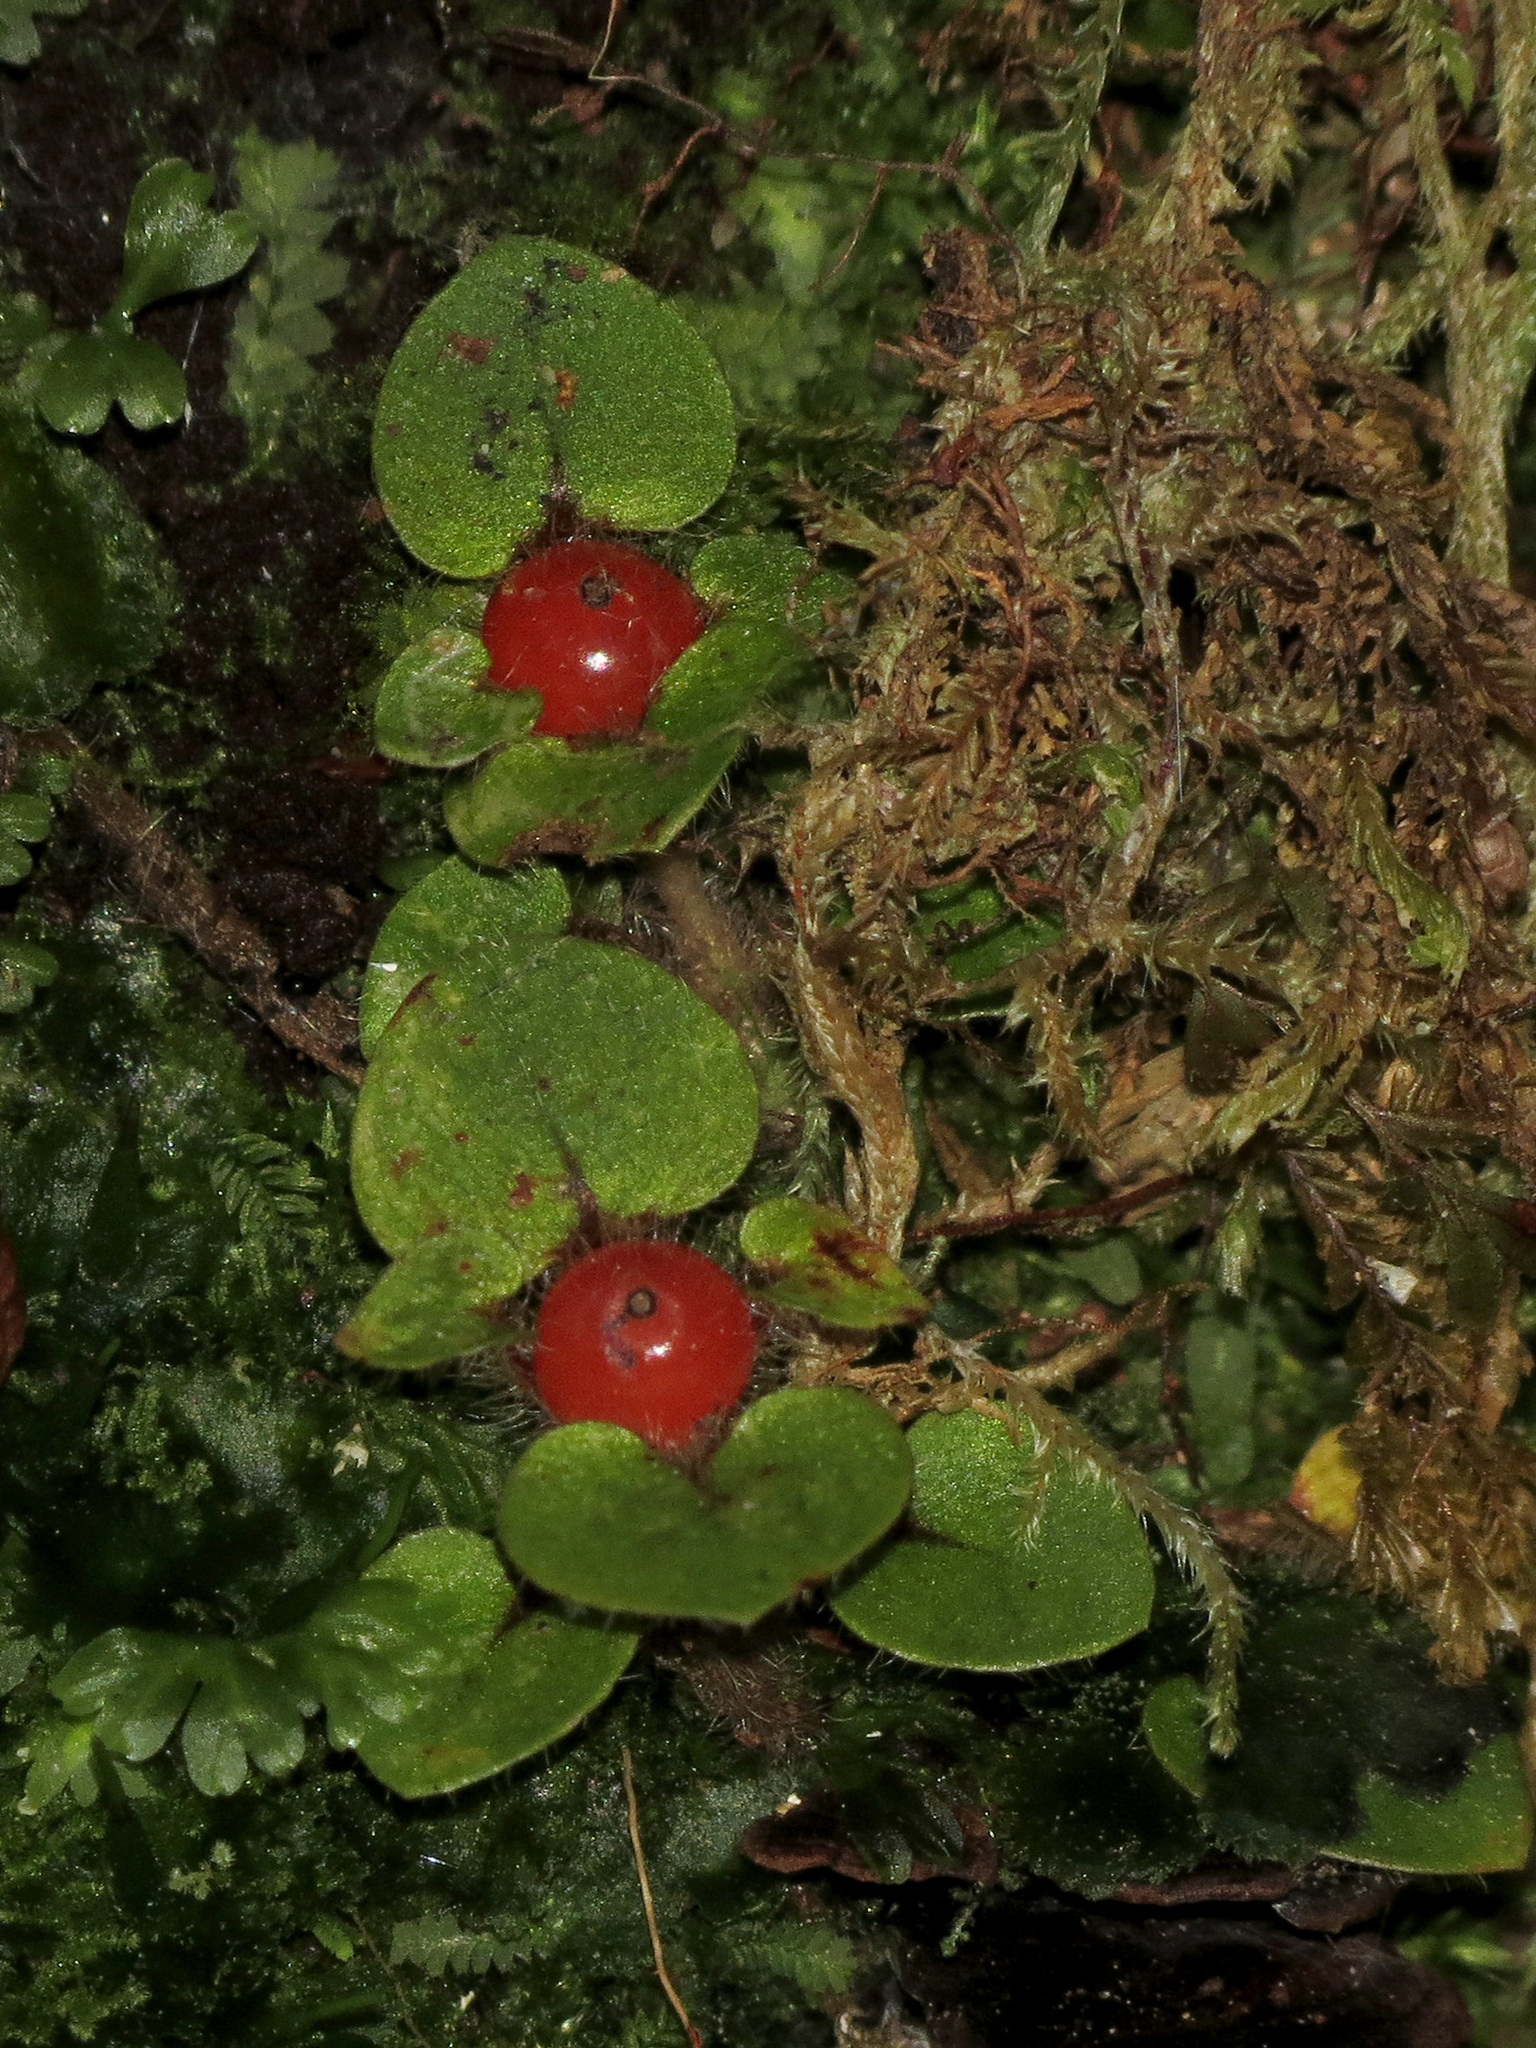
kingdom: Plantae
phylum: Tracheophyta
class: Magnoliopsida
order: Gentianales
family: Rubiaceae
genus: Nertera
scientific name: Nertera villosa
